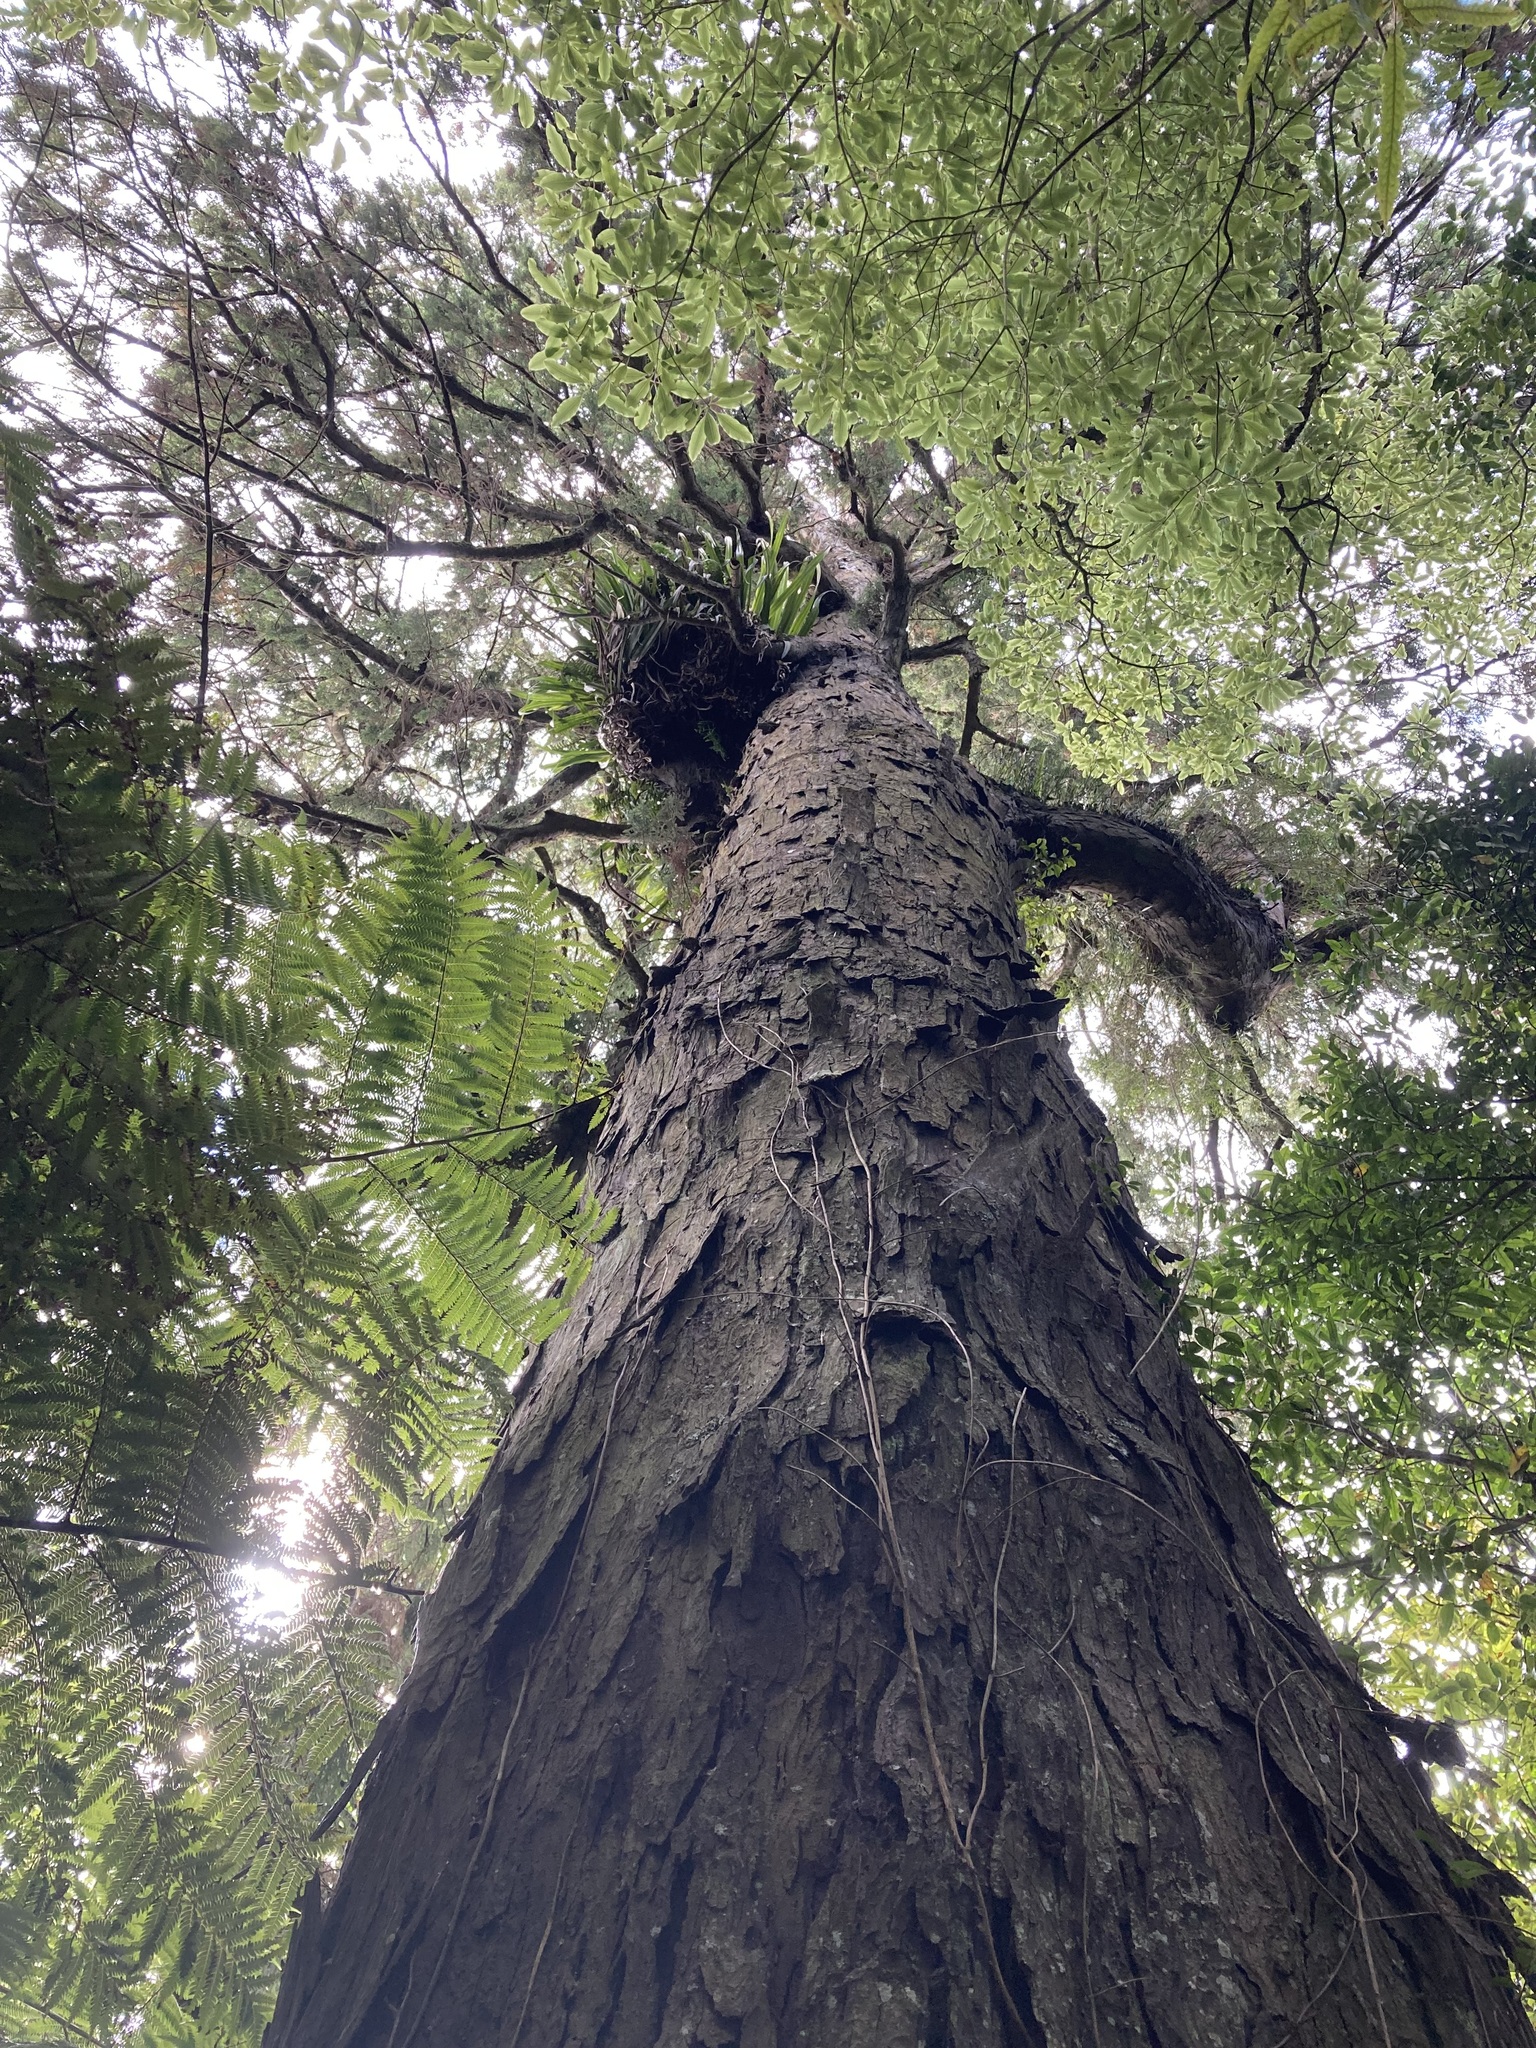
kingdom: Plantae
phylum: Tracheophyta
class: Pinopsida
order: Pinales
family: Podocarpaceae
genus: Dacrydium
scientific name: Dacrydium cupressinum
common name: Red pine
